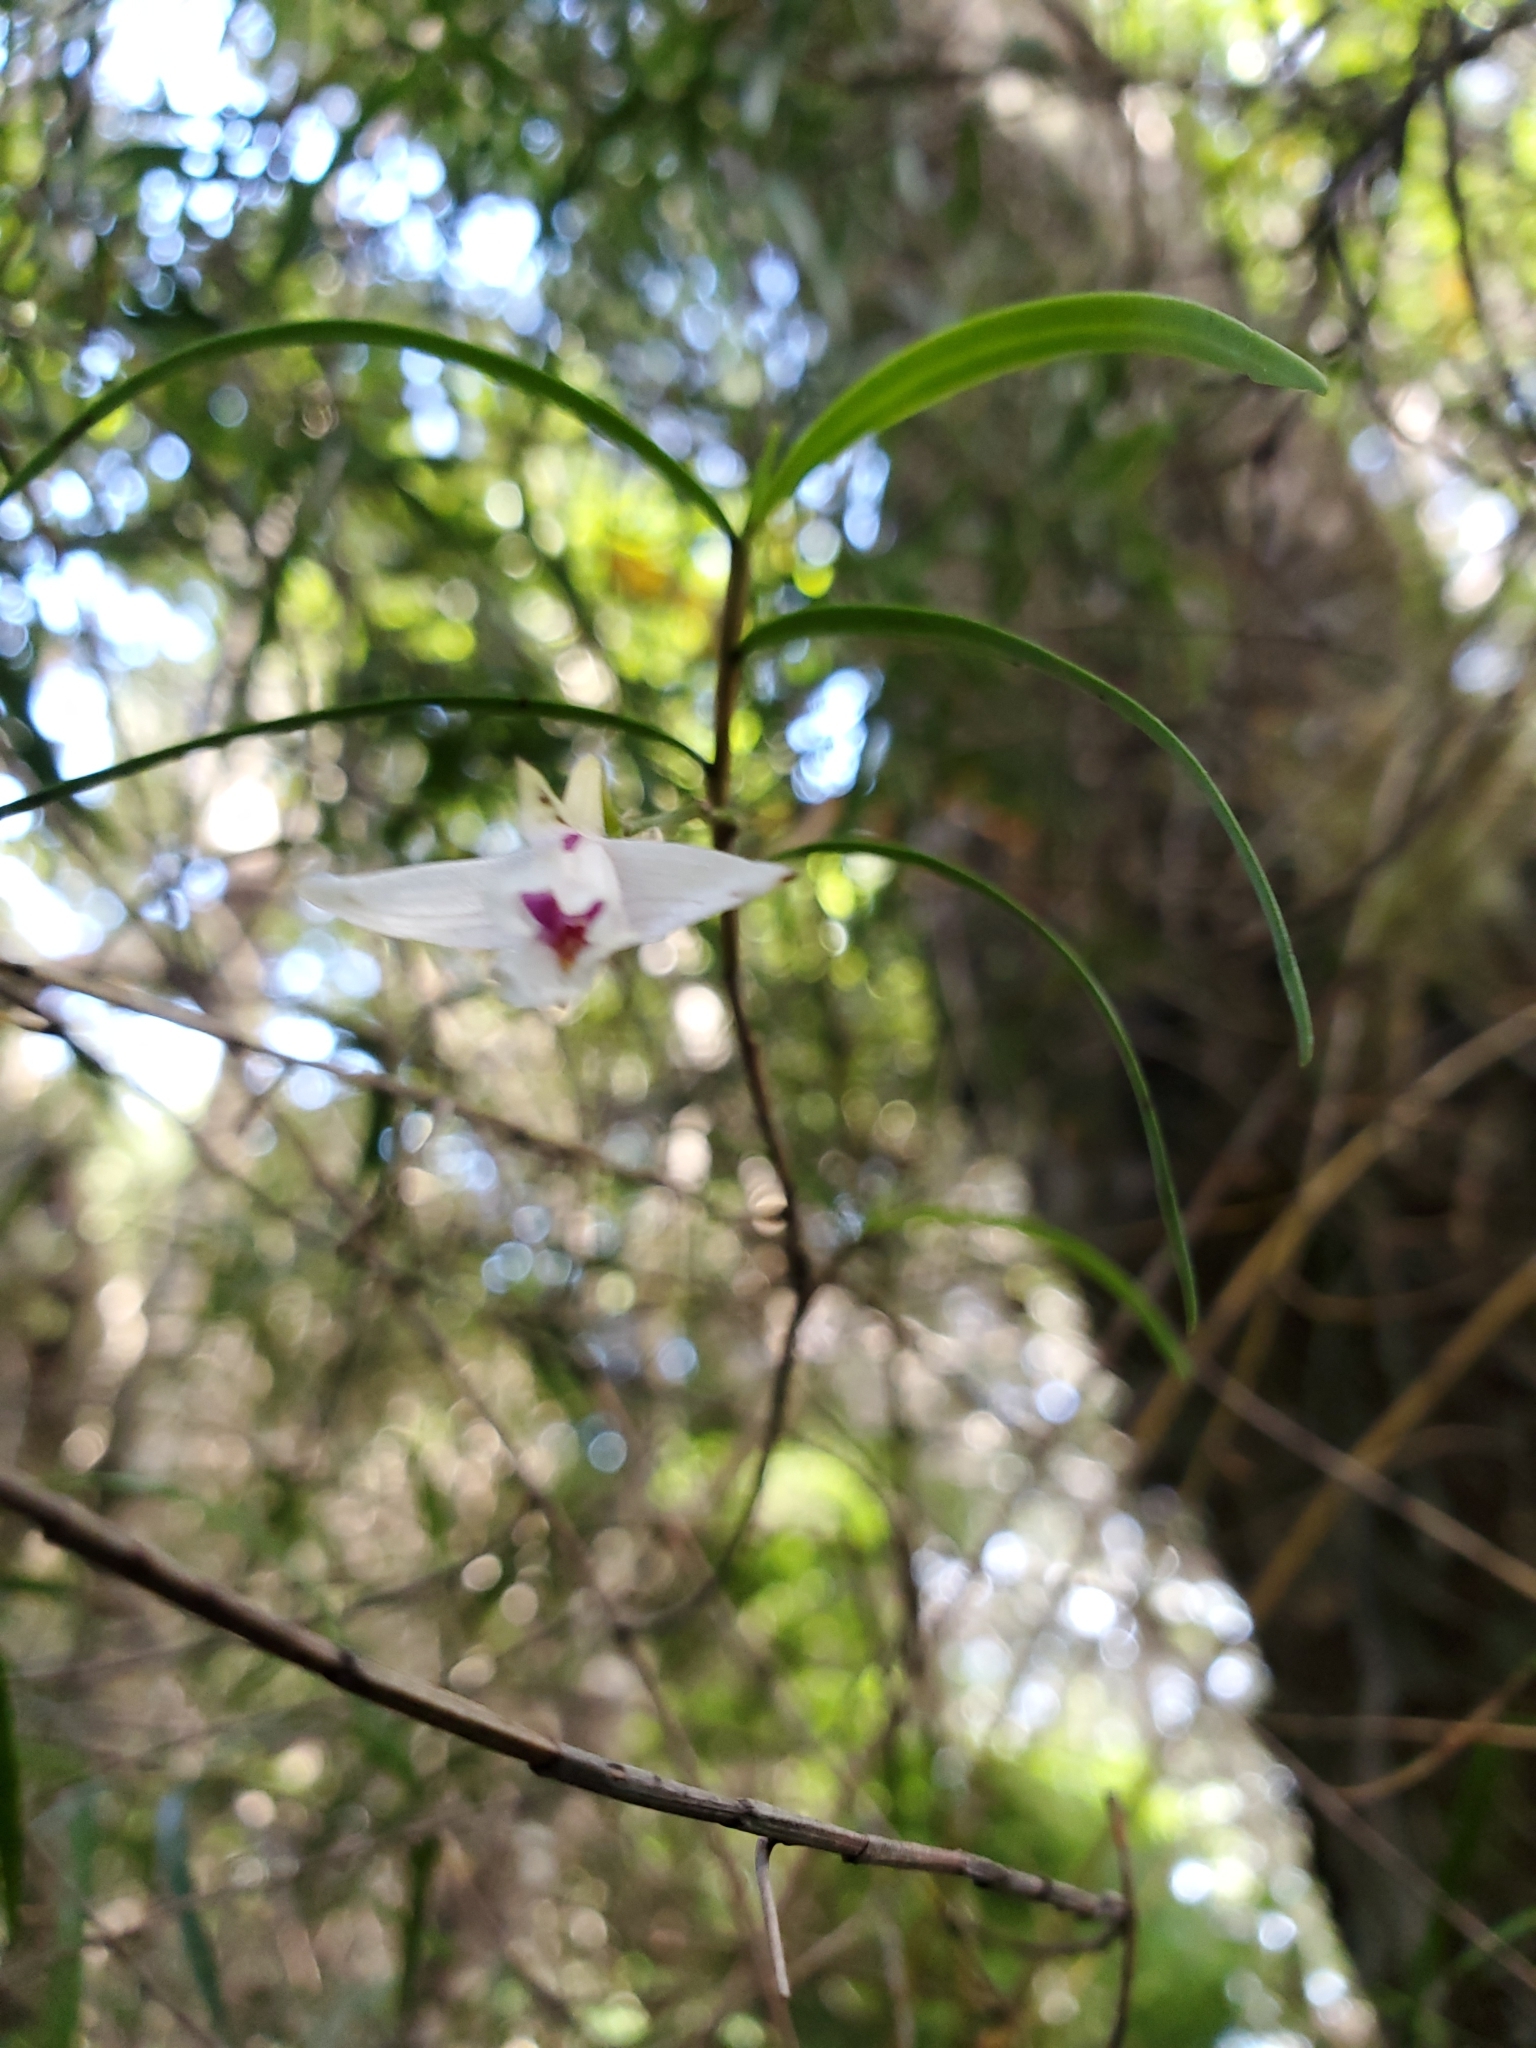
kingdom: Plantae
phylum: Tracheophyta
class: Liliopsida
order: Asparagales
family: Orchidaceae
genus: Dendrobium
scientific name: Dendrobium cunninghamii
